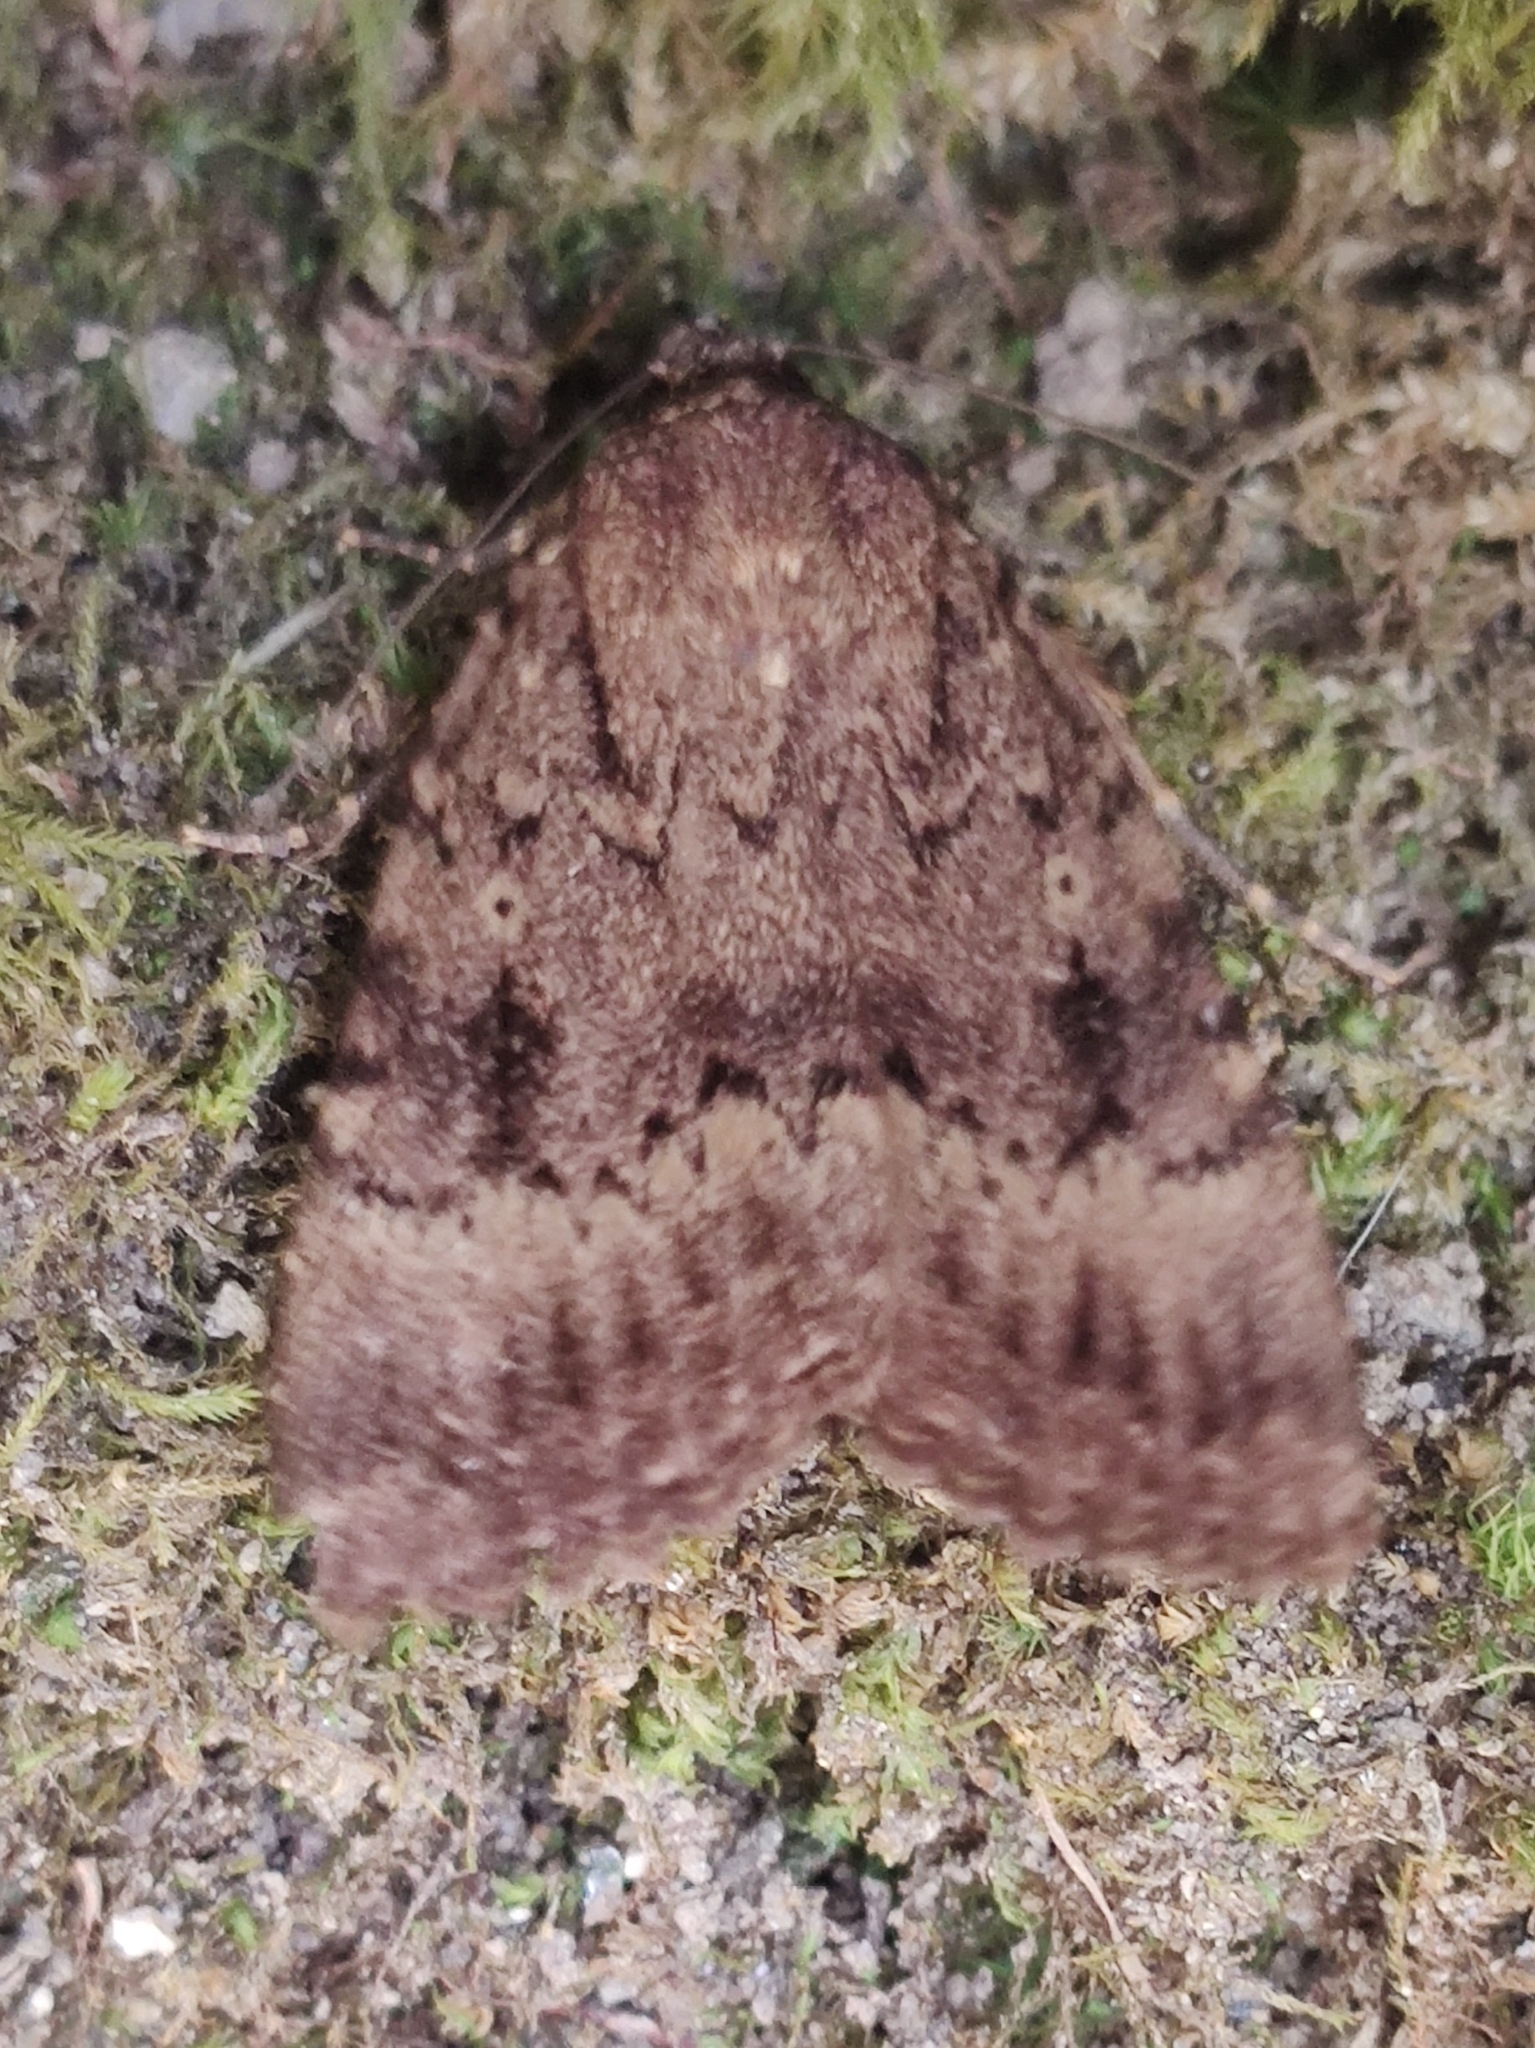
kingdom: Animalia
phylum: Arthropoda
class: Insecta
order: Lepidoptera
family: Noctuidae
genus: Amphipyra
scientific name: Amphipyra pyramidea
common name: Copper underwing
